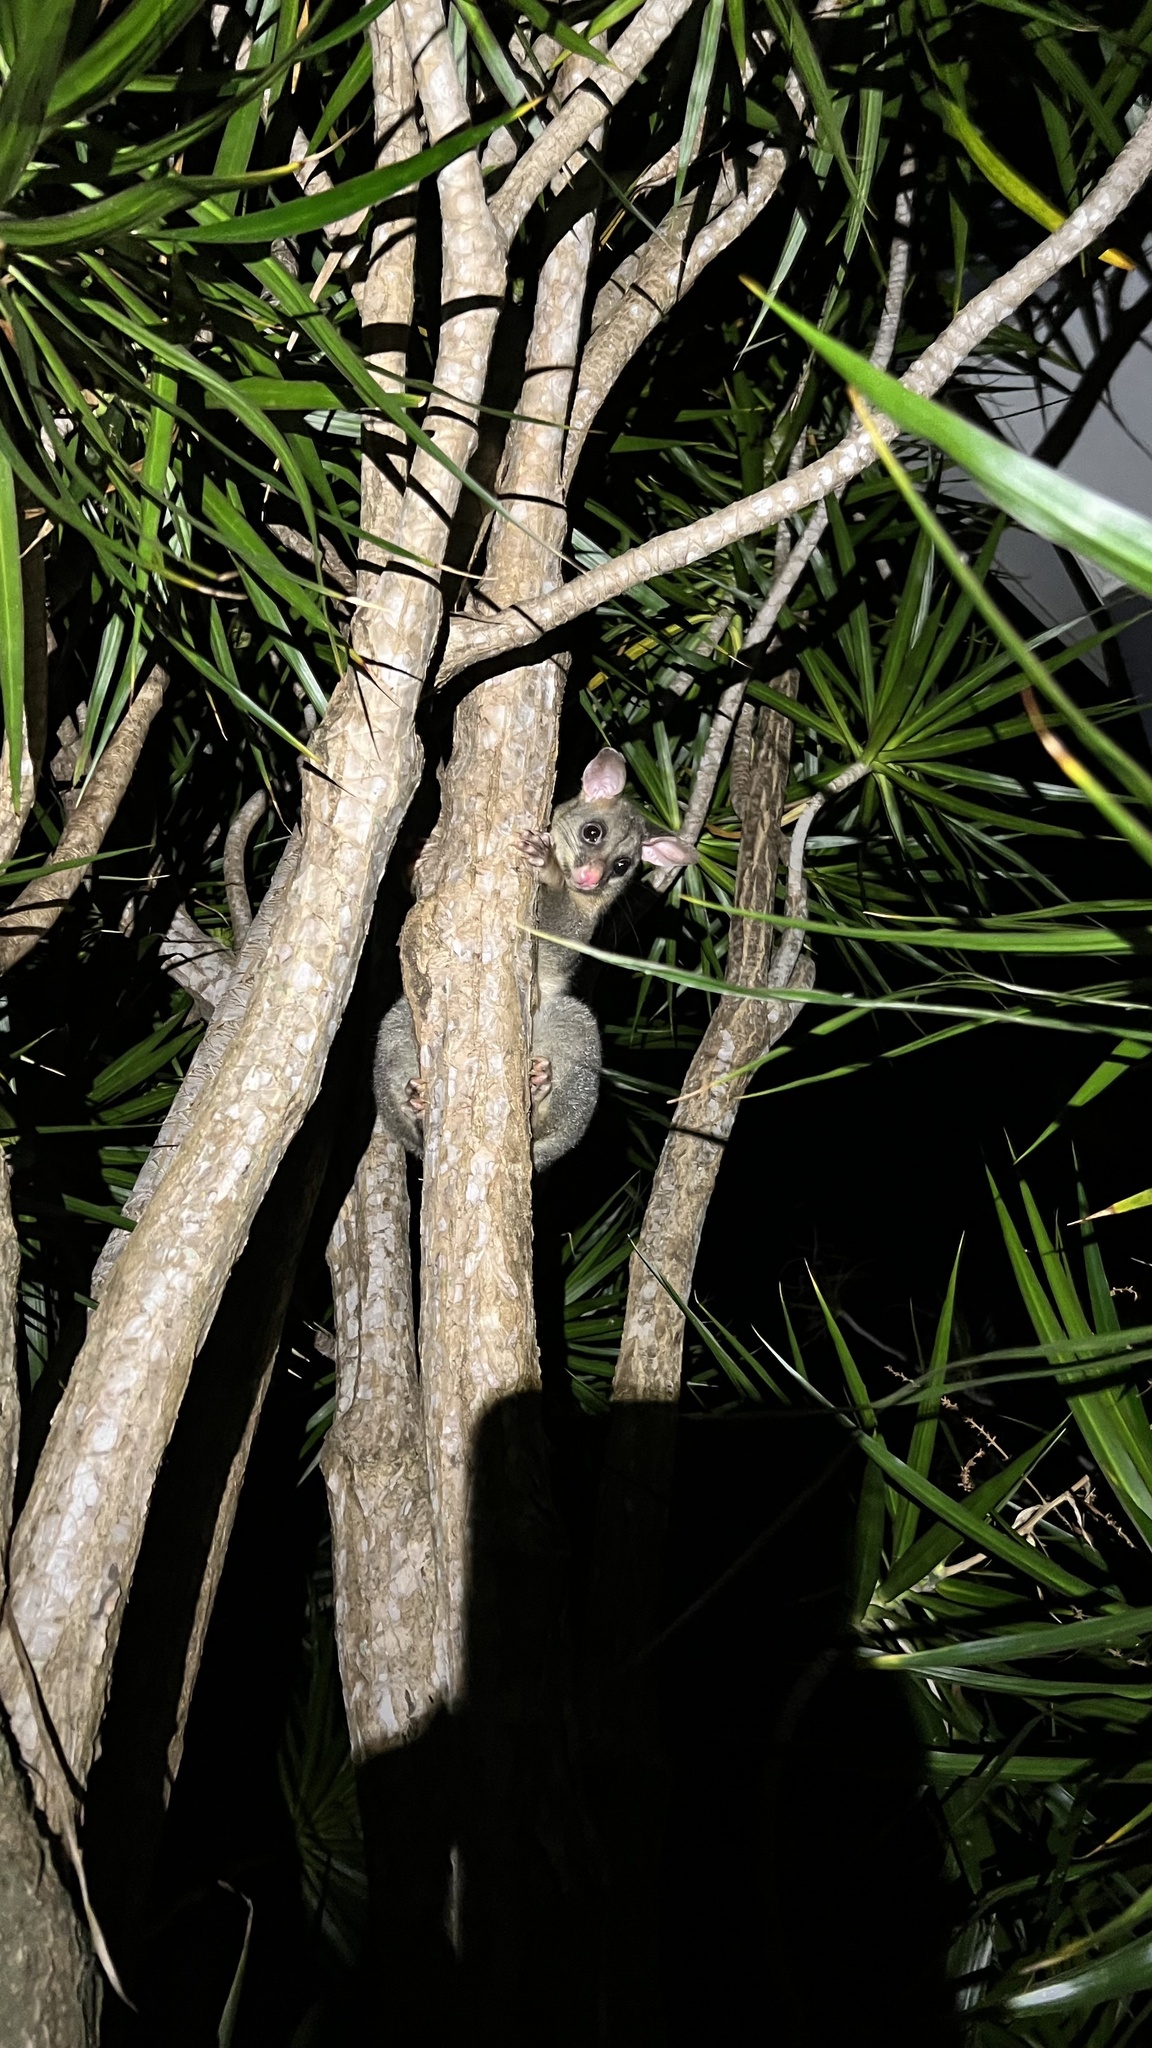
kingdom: Animalia
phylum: Chordata
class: Mammalia
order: Diprotodontia
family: Phalangeridae
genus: Trichosurus
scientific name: Trichosurus vulpecula
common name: Common brushtail
